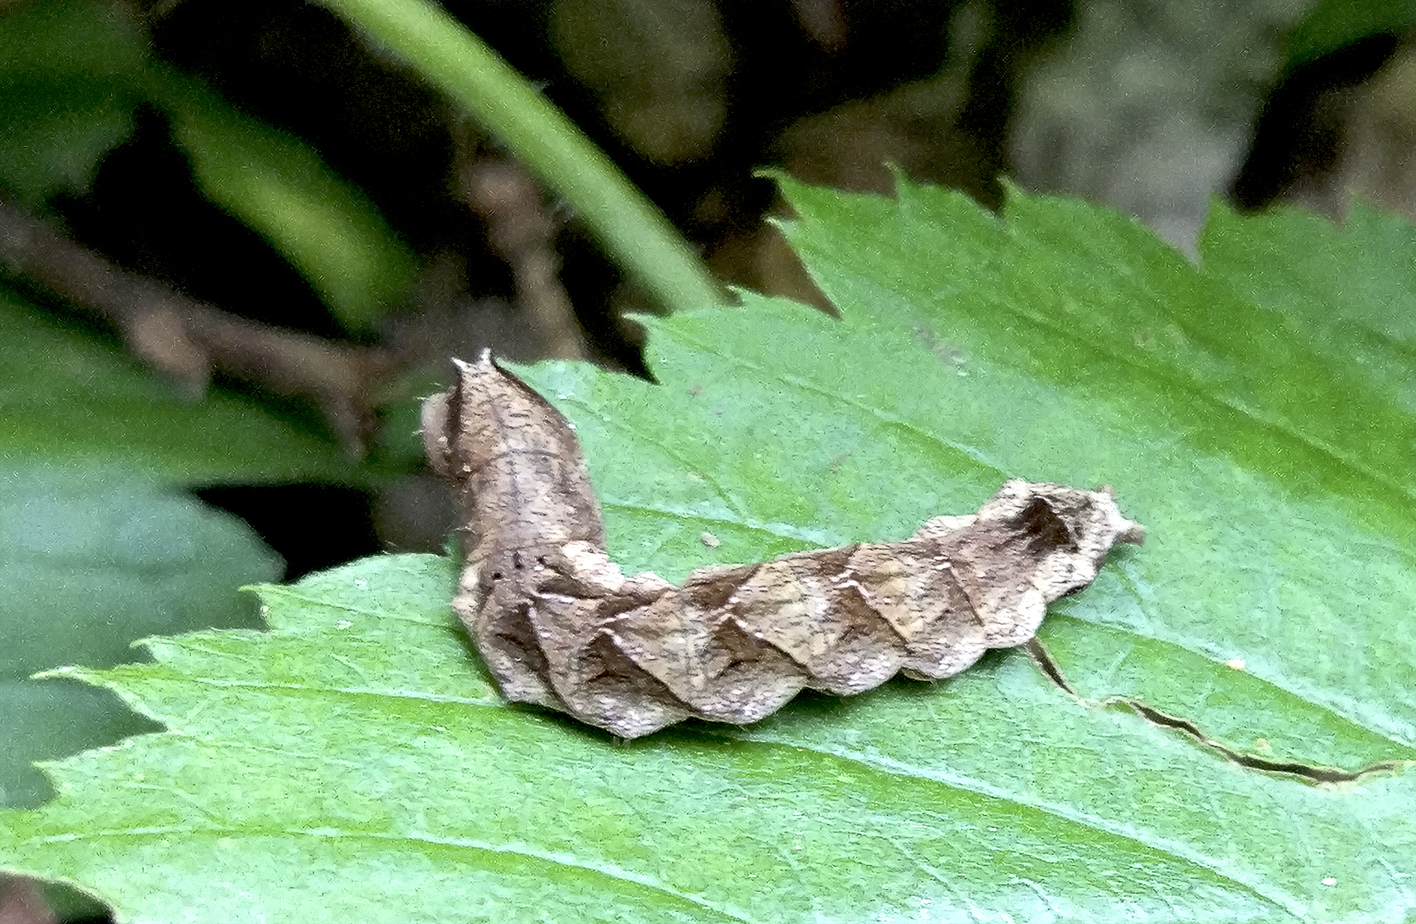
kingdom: Animalia
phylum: Arthropoda
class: Insecta
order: Lepidoptera
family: Drepanidae
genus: Thyatira
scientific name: Thyatira batis
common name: Peach blossom
